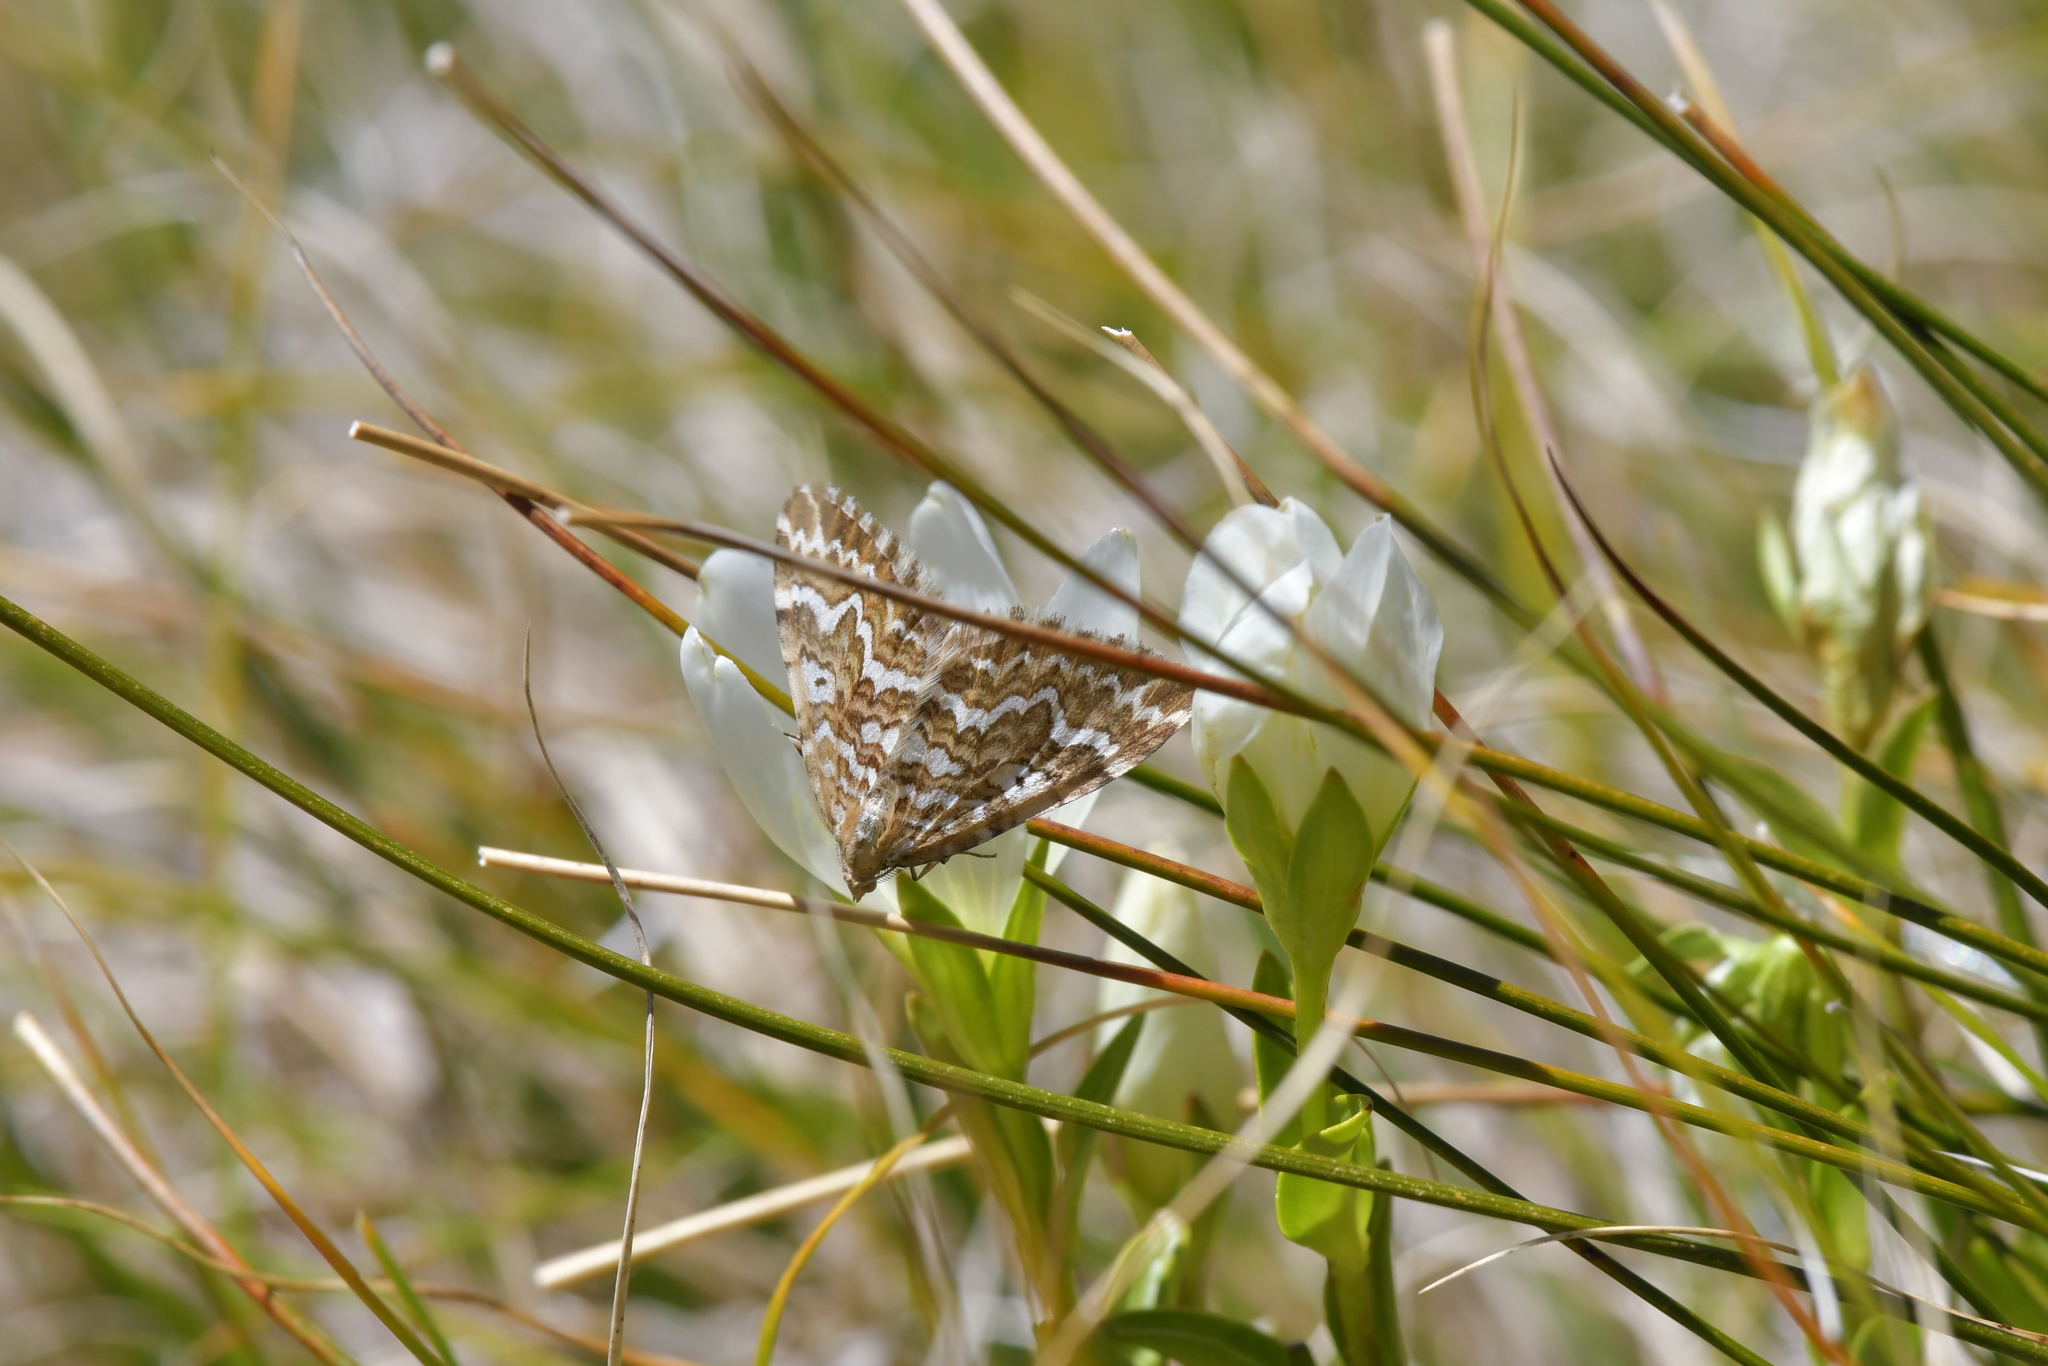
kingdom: Animalia
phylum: Arthropoda
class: Insecta
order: Lepidoptera
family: Geometridae
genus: Asaphodes
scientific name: Asaphodes clarata
